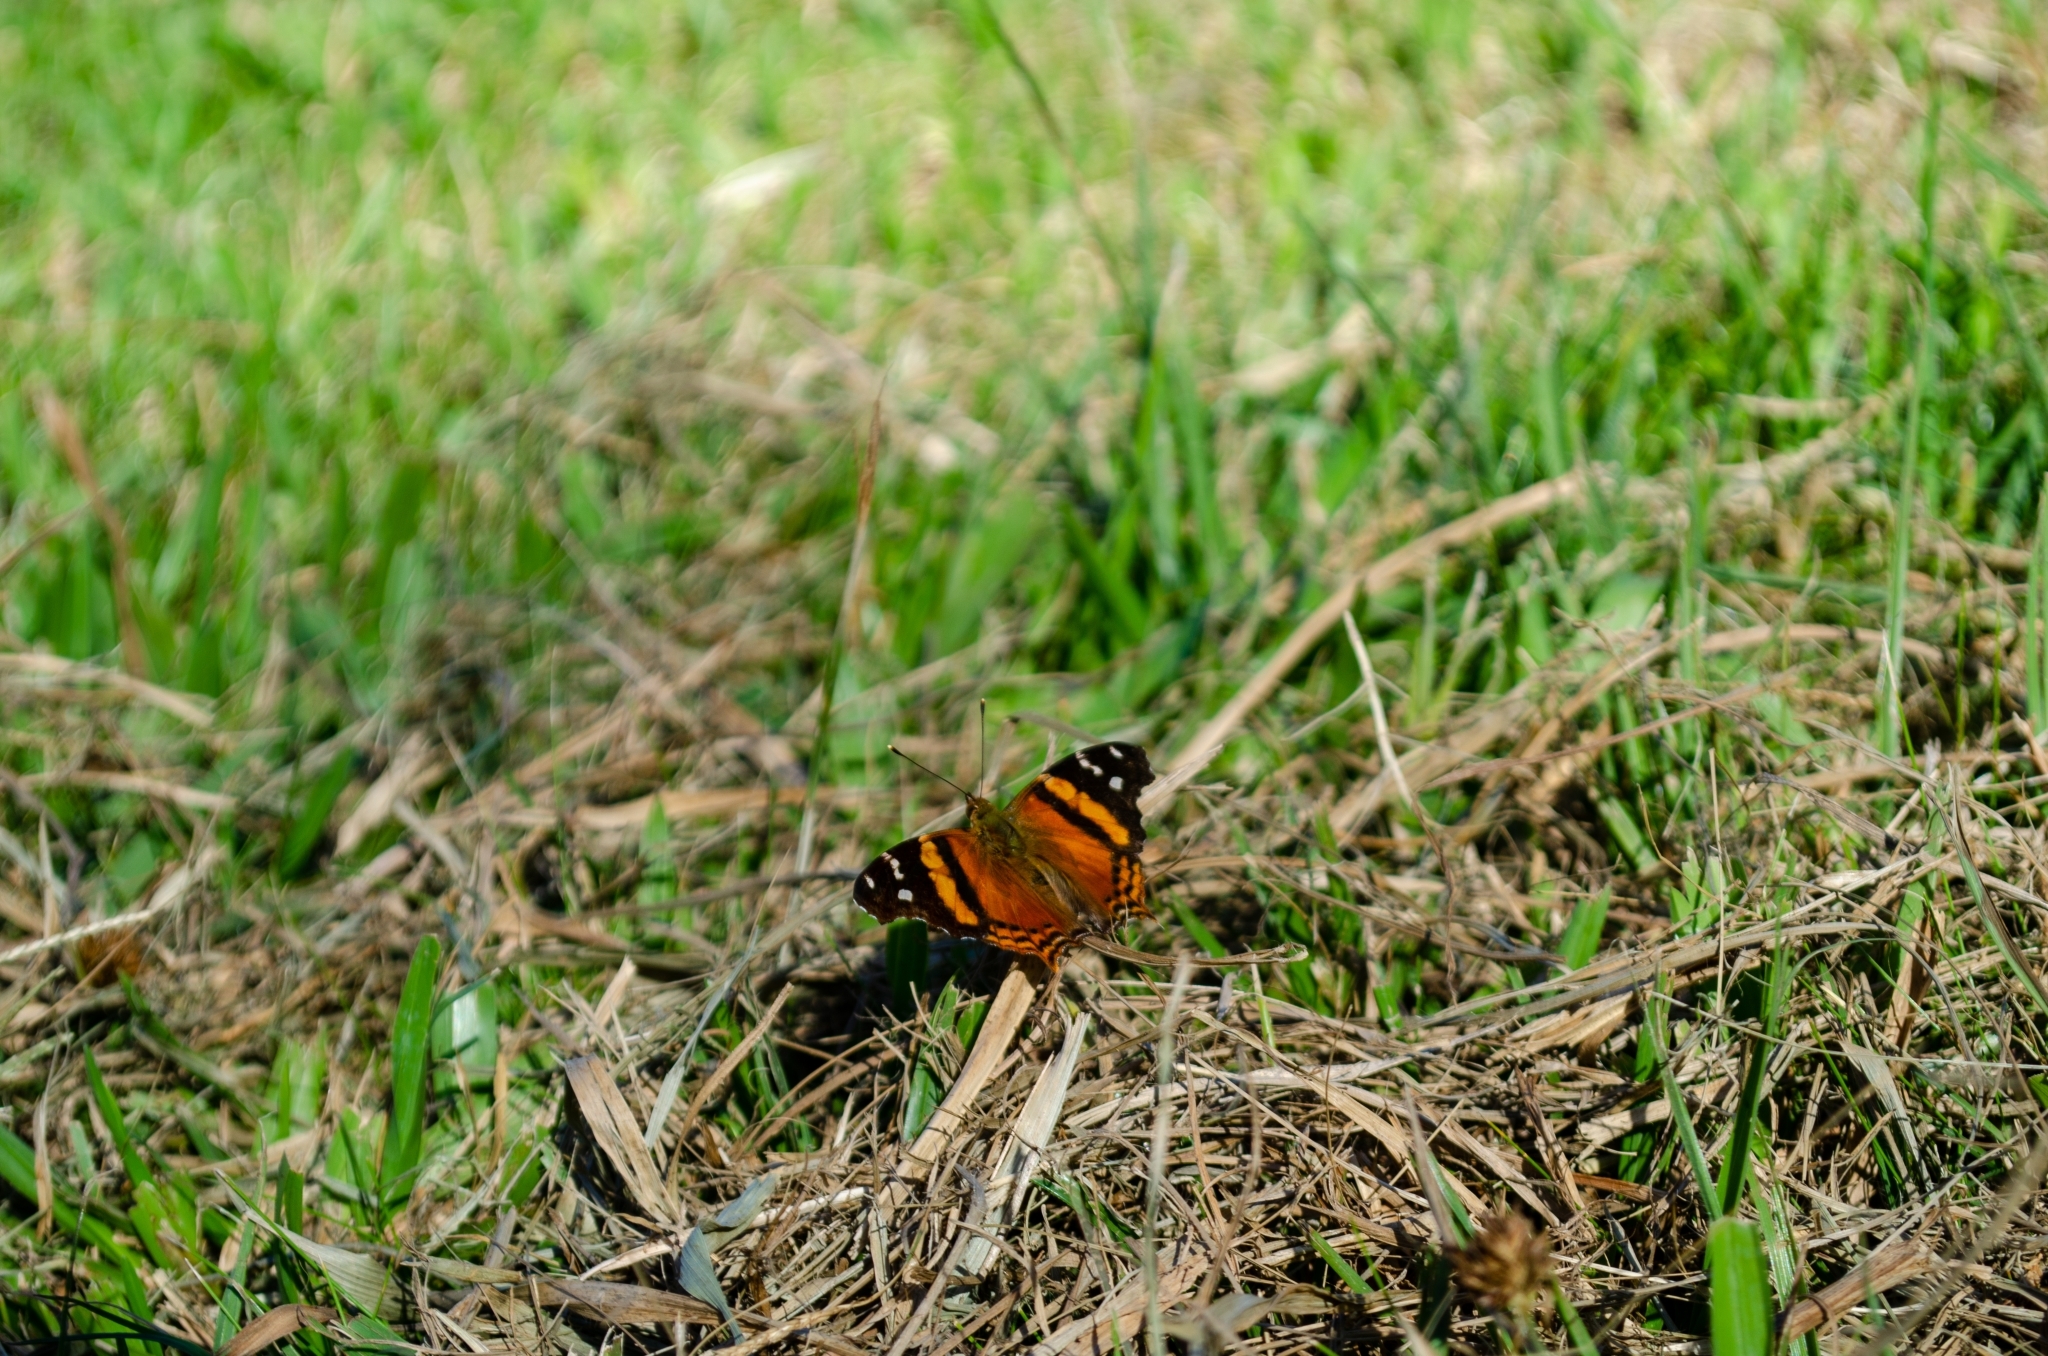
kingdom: Animalia
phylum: Arthropoda
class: Insecta
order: Lepidoptera
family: Nymphalidae
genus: Hypanartia
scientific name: Hypanartia bella
